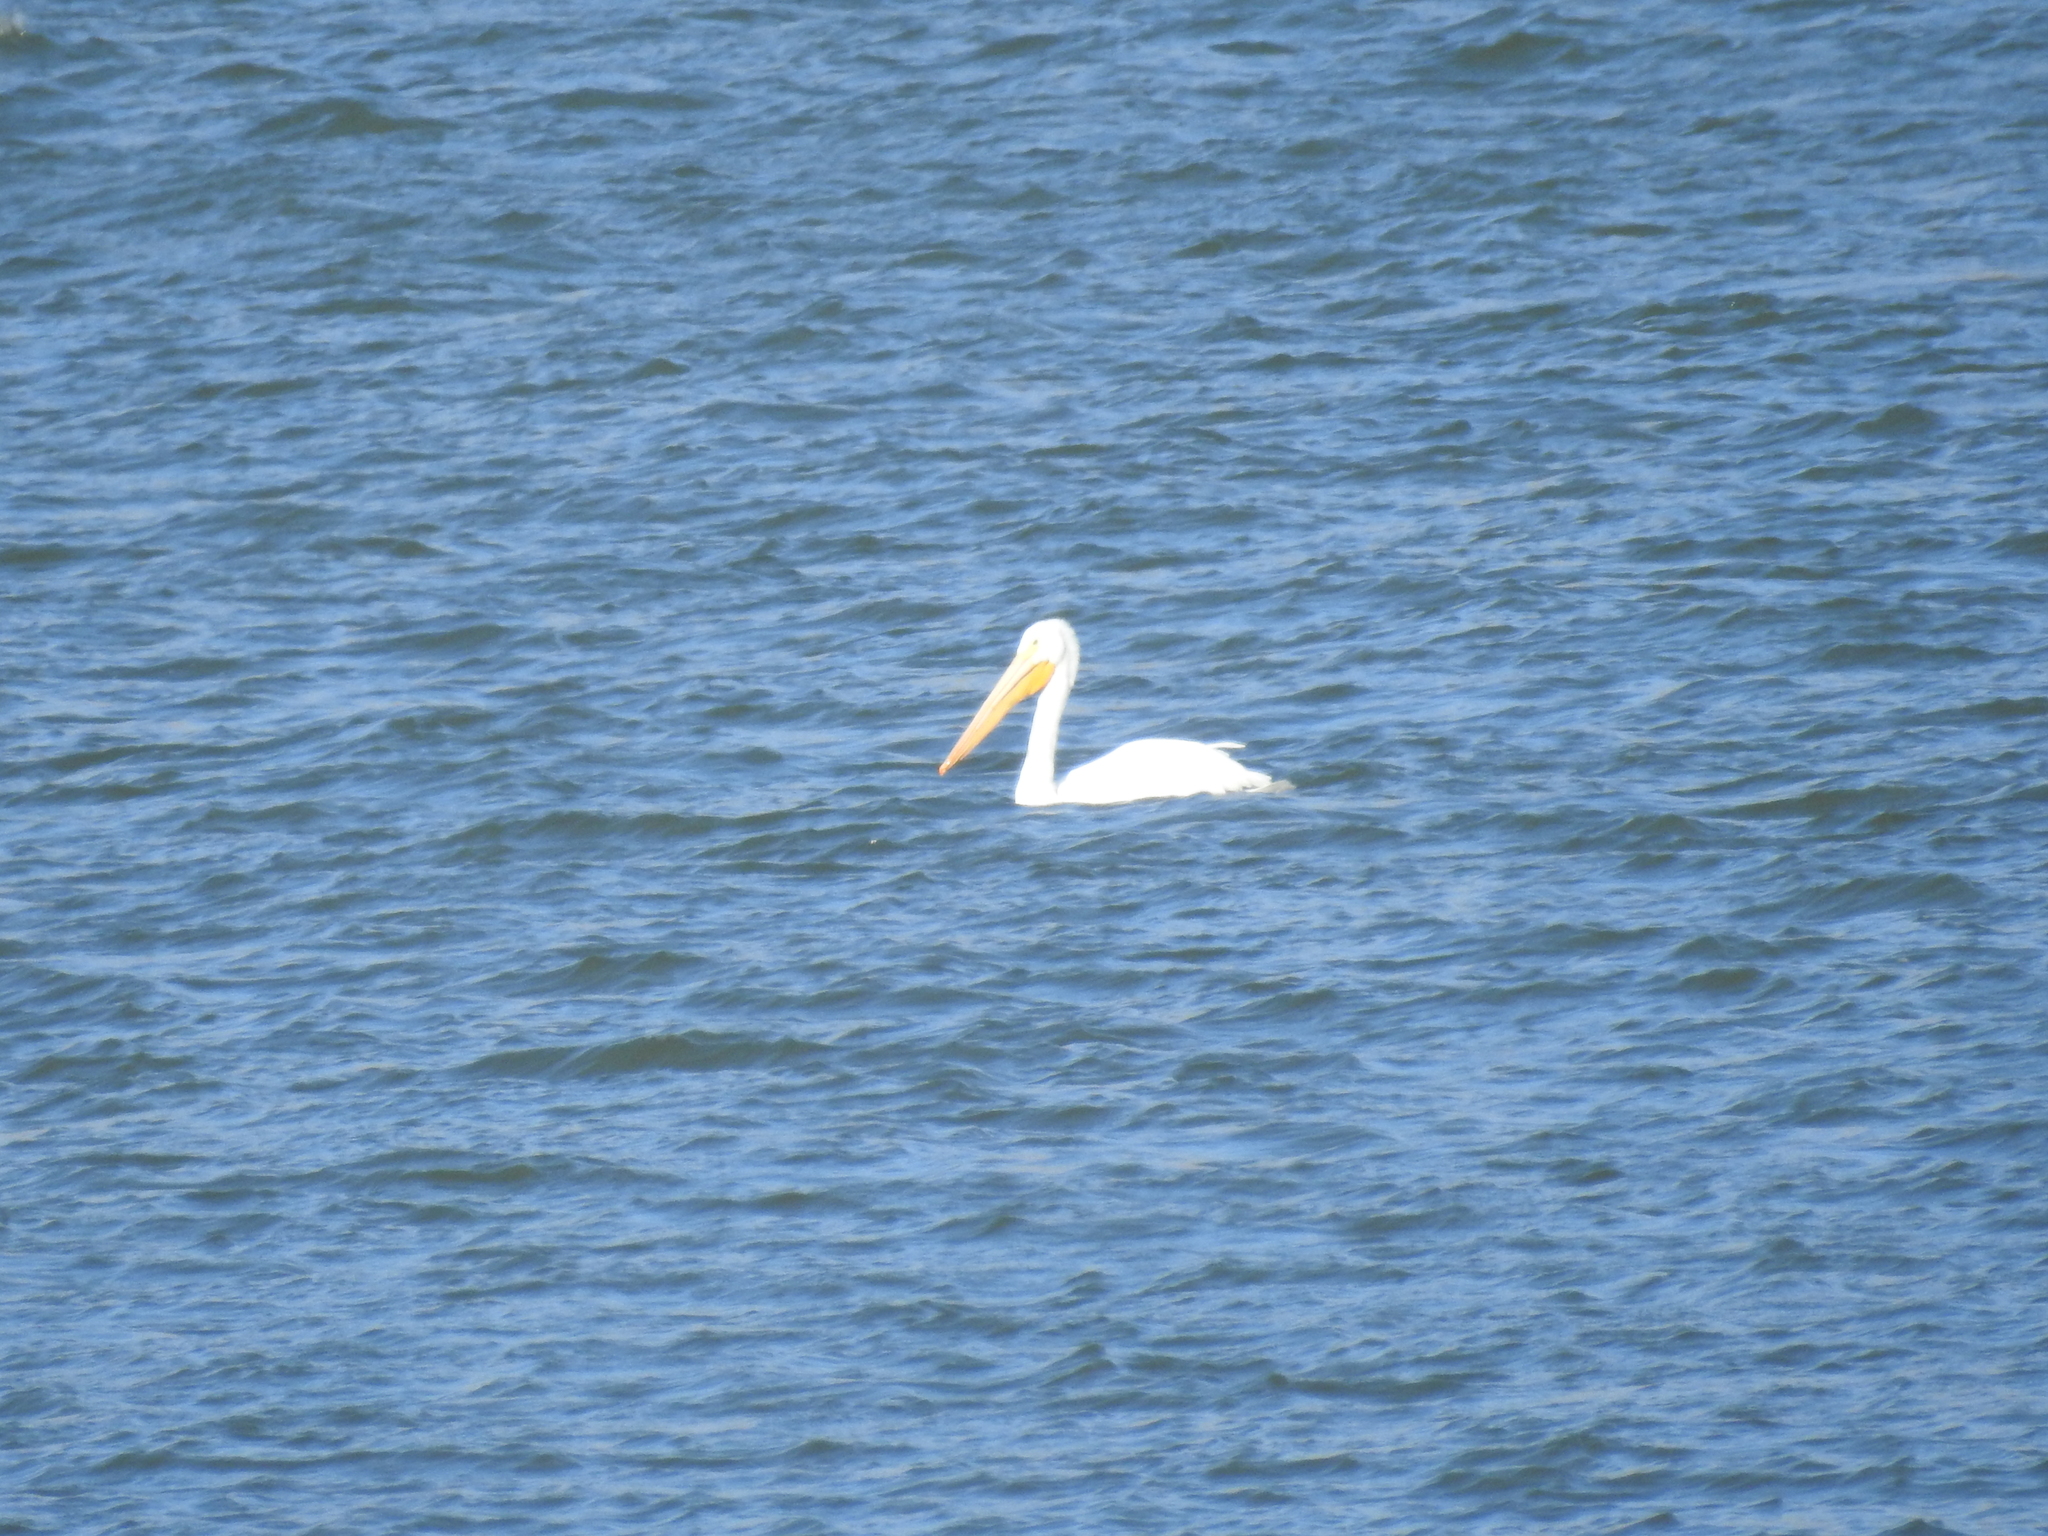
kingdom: Animalia
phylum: Chordata
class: Aves
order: Pelecaniformes
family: Pelecanidae
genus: Pelecanus
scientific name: Pelecanus erythrorhynchos
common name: American white pelican
